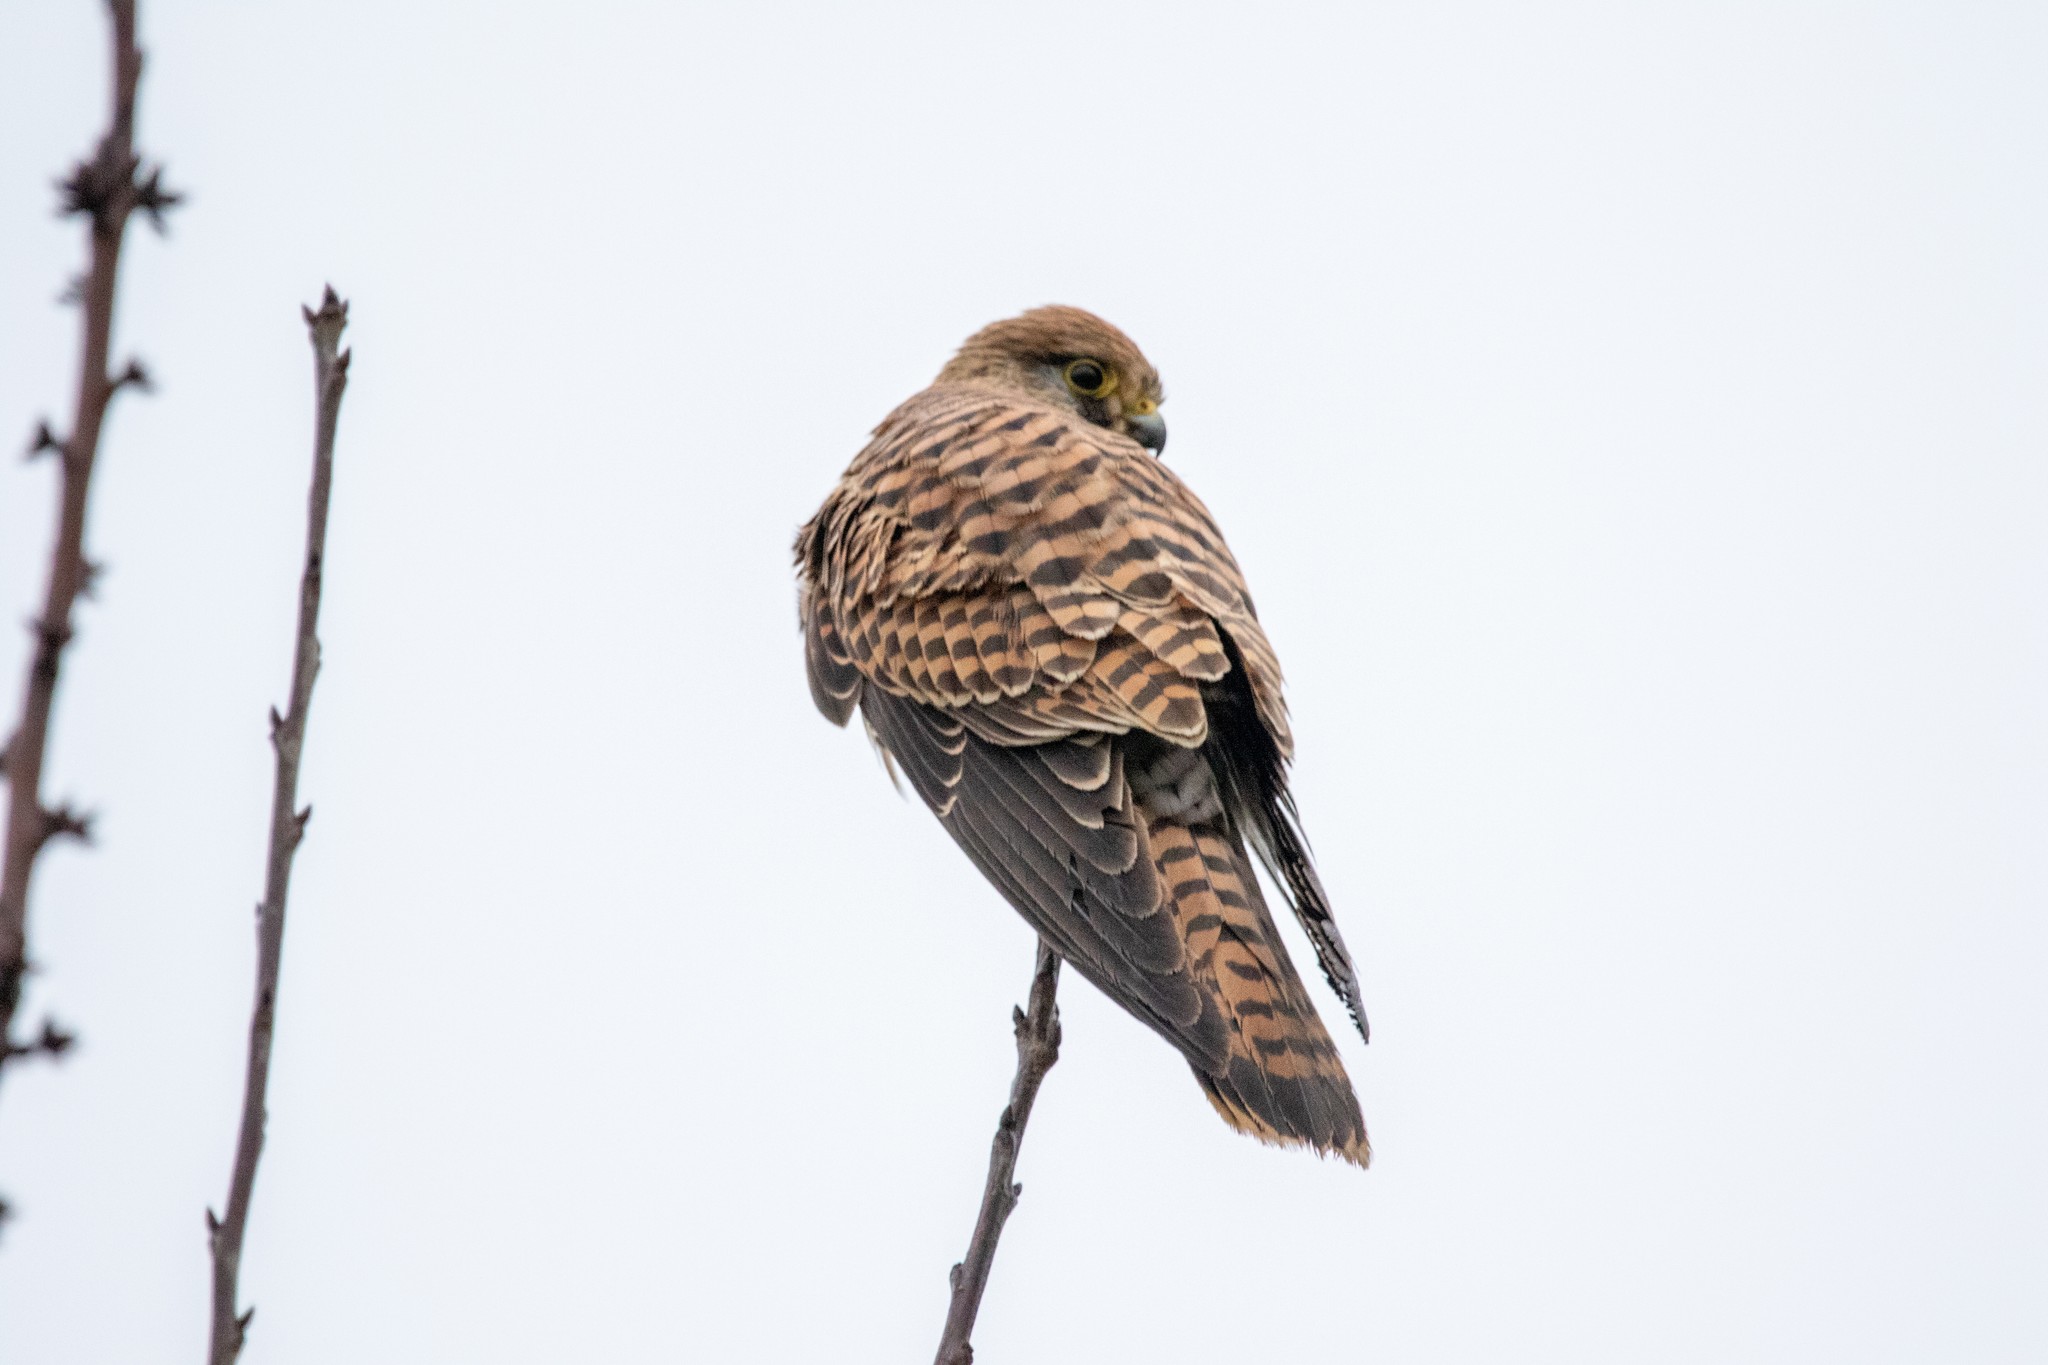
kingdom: Animalia
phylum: Chordata
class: Aves
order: Falconiformes
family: Falconidae
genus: Falco
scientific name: Falco tinnunculus
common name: Common kestrel
